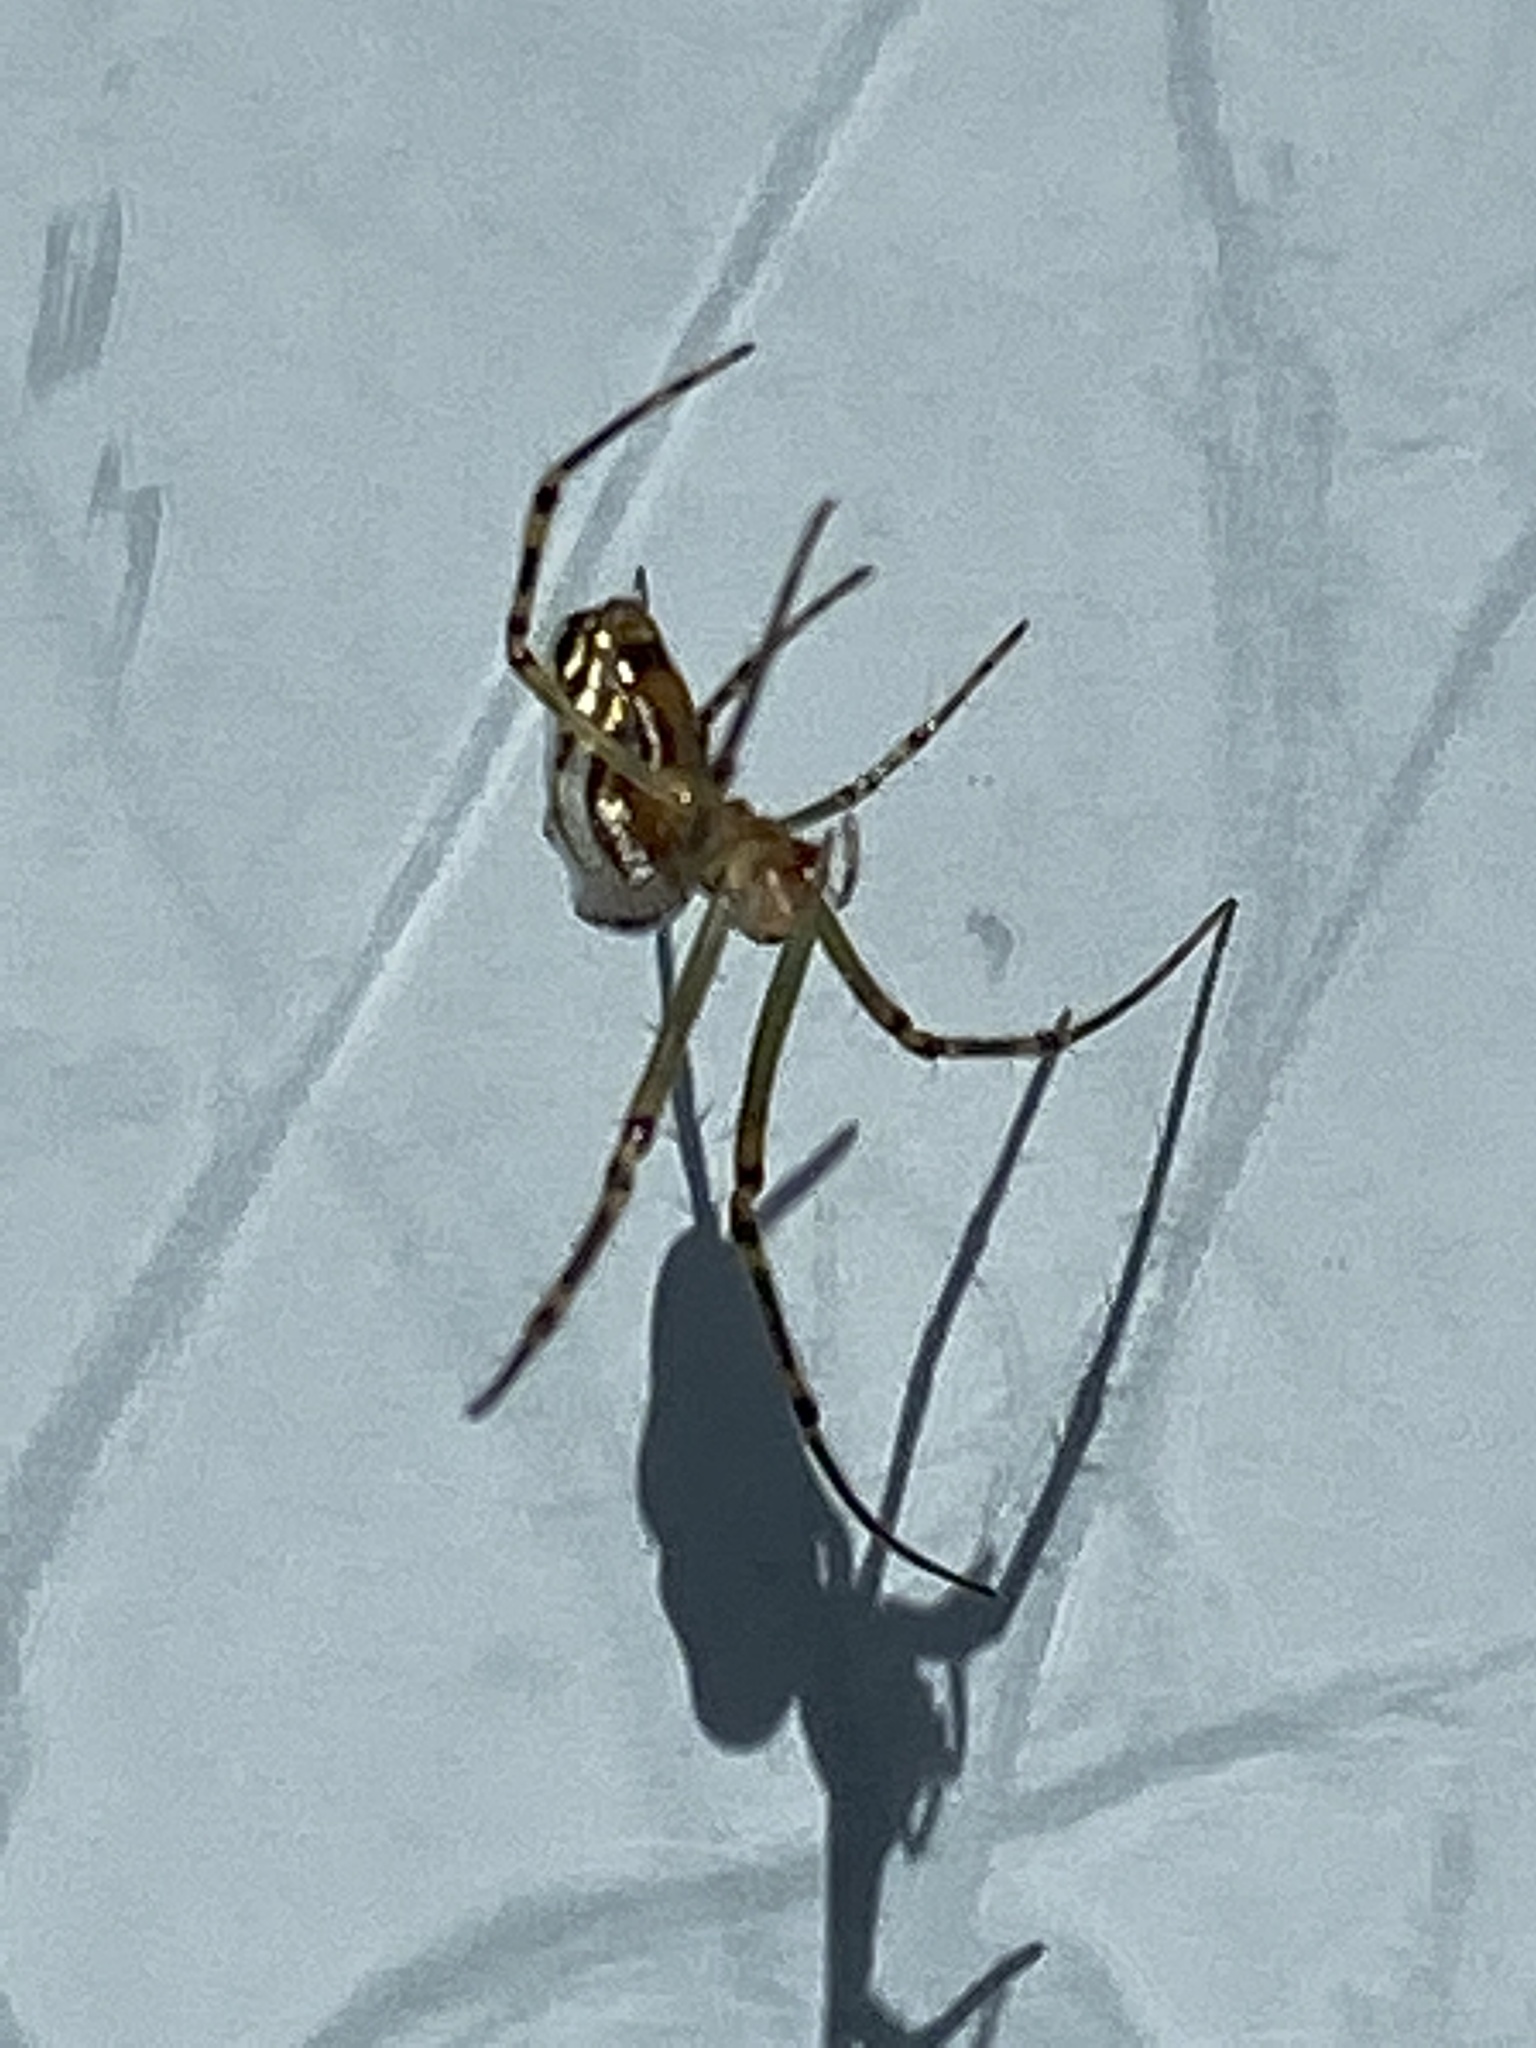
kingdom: Animalia
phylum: Arthropoda
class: Arachnida
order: Araneae
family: Tetragnathidae
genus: Leucauge
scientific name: Leucauge dromedaria
